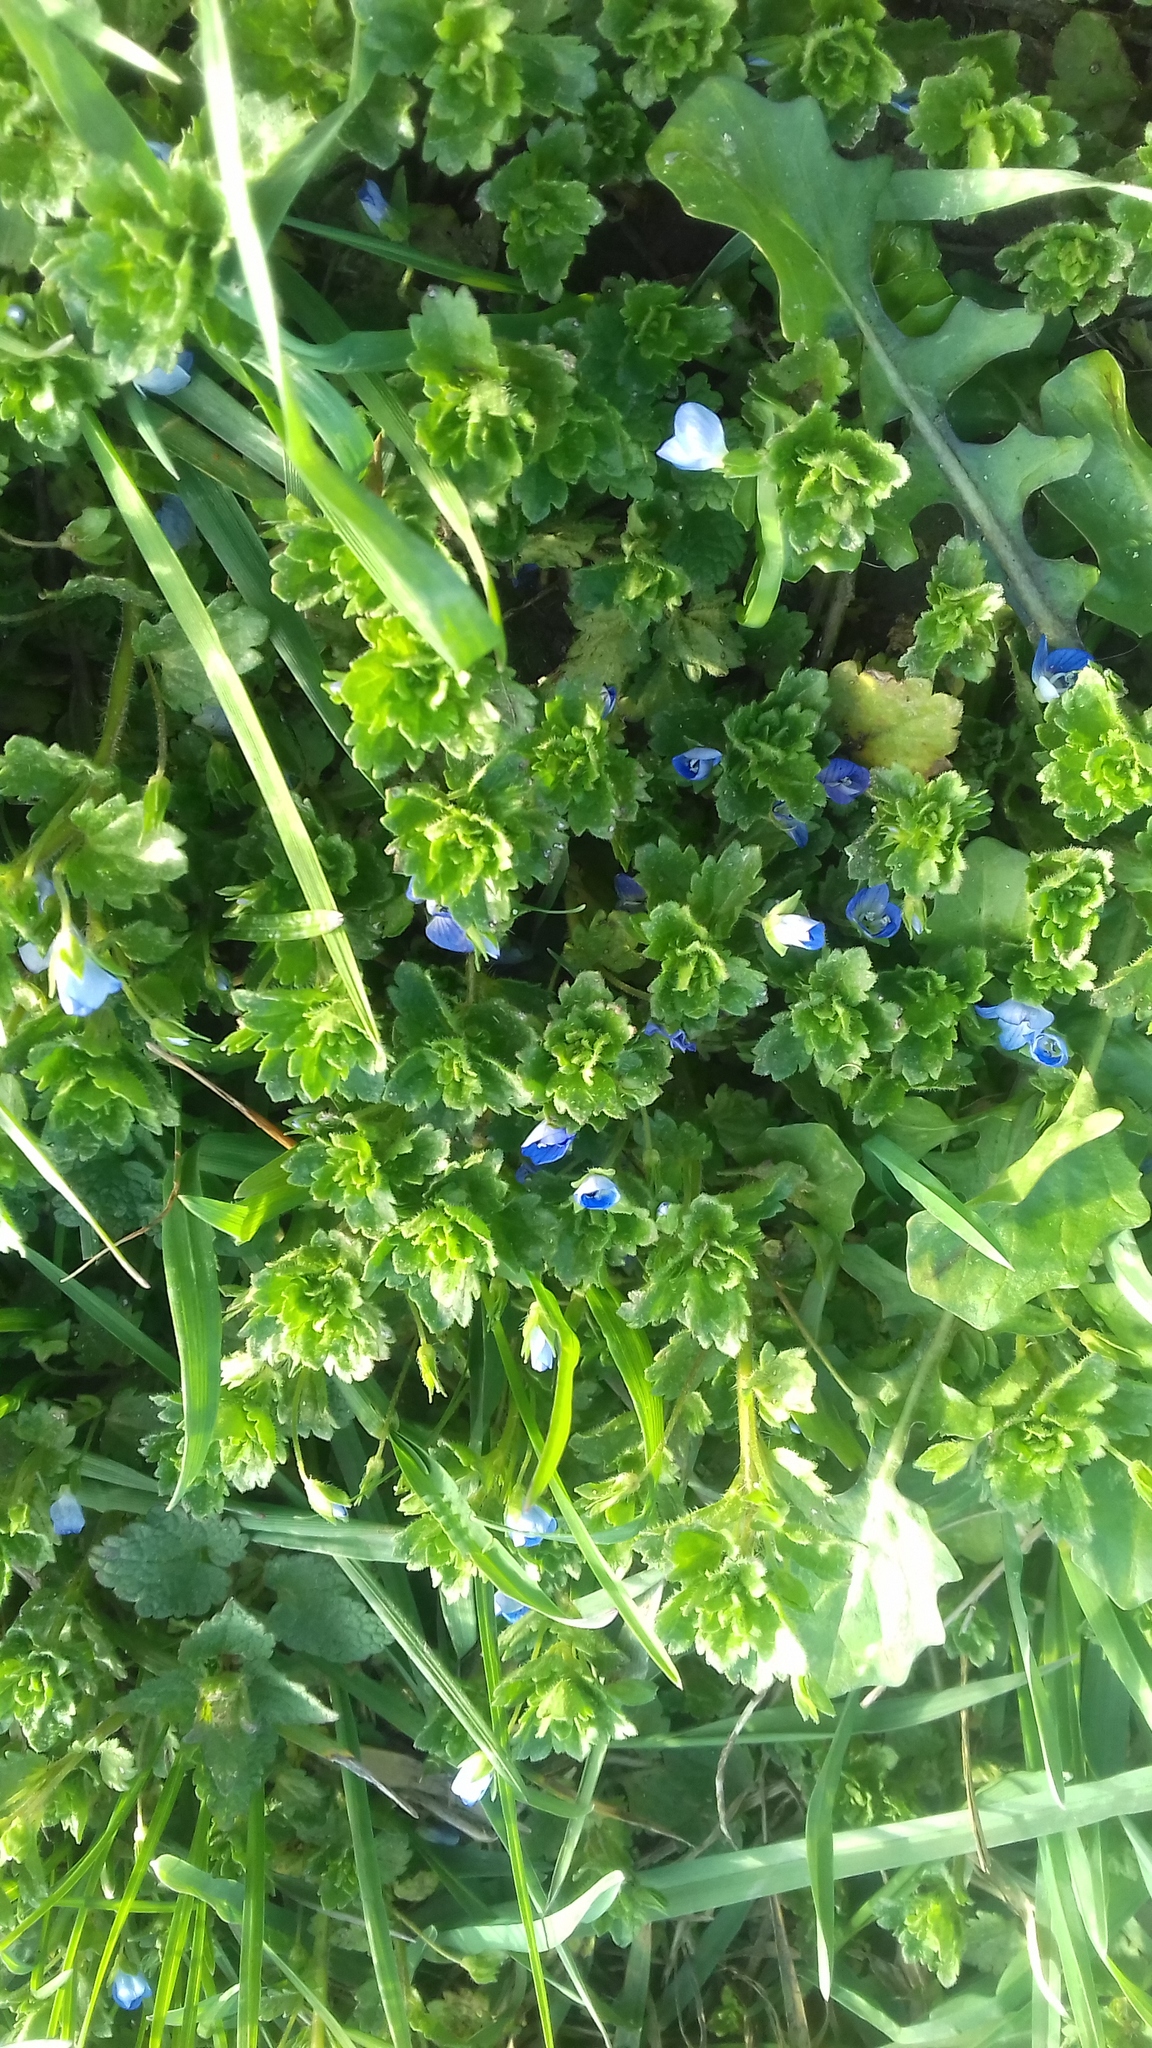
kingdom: Plantae
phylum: Tracheophyta
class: Magnoliopsida
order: Lamiales
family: Plantaginaceae
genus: Veronica
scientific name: Veronica persica
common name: Common field-speedwell
